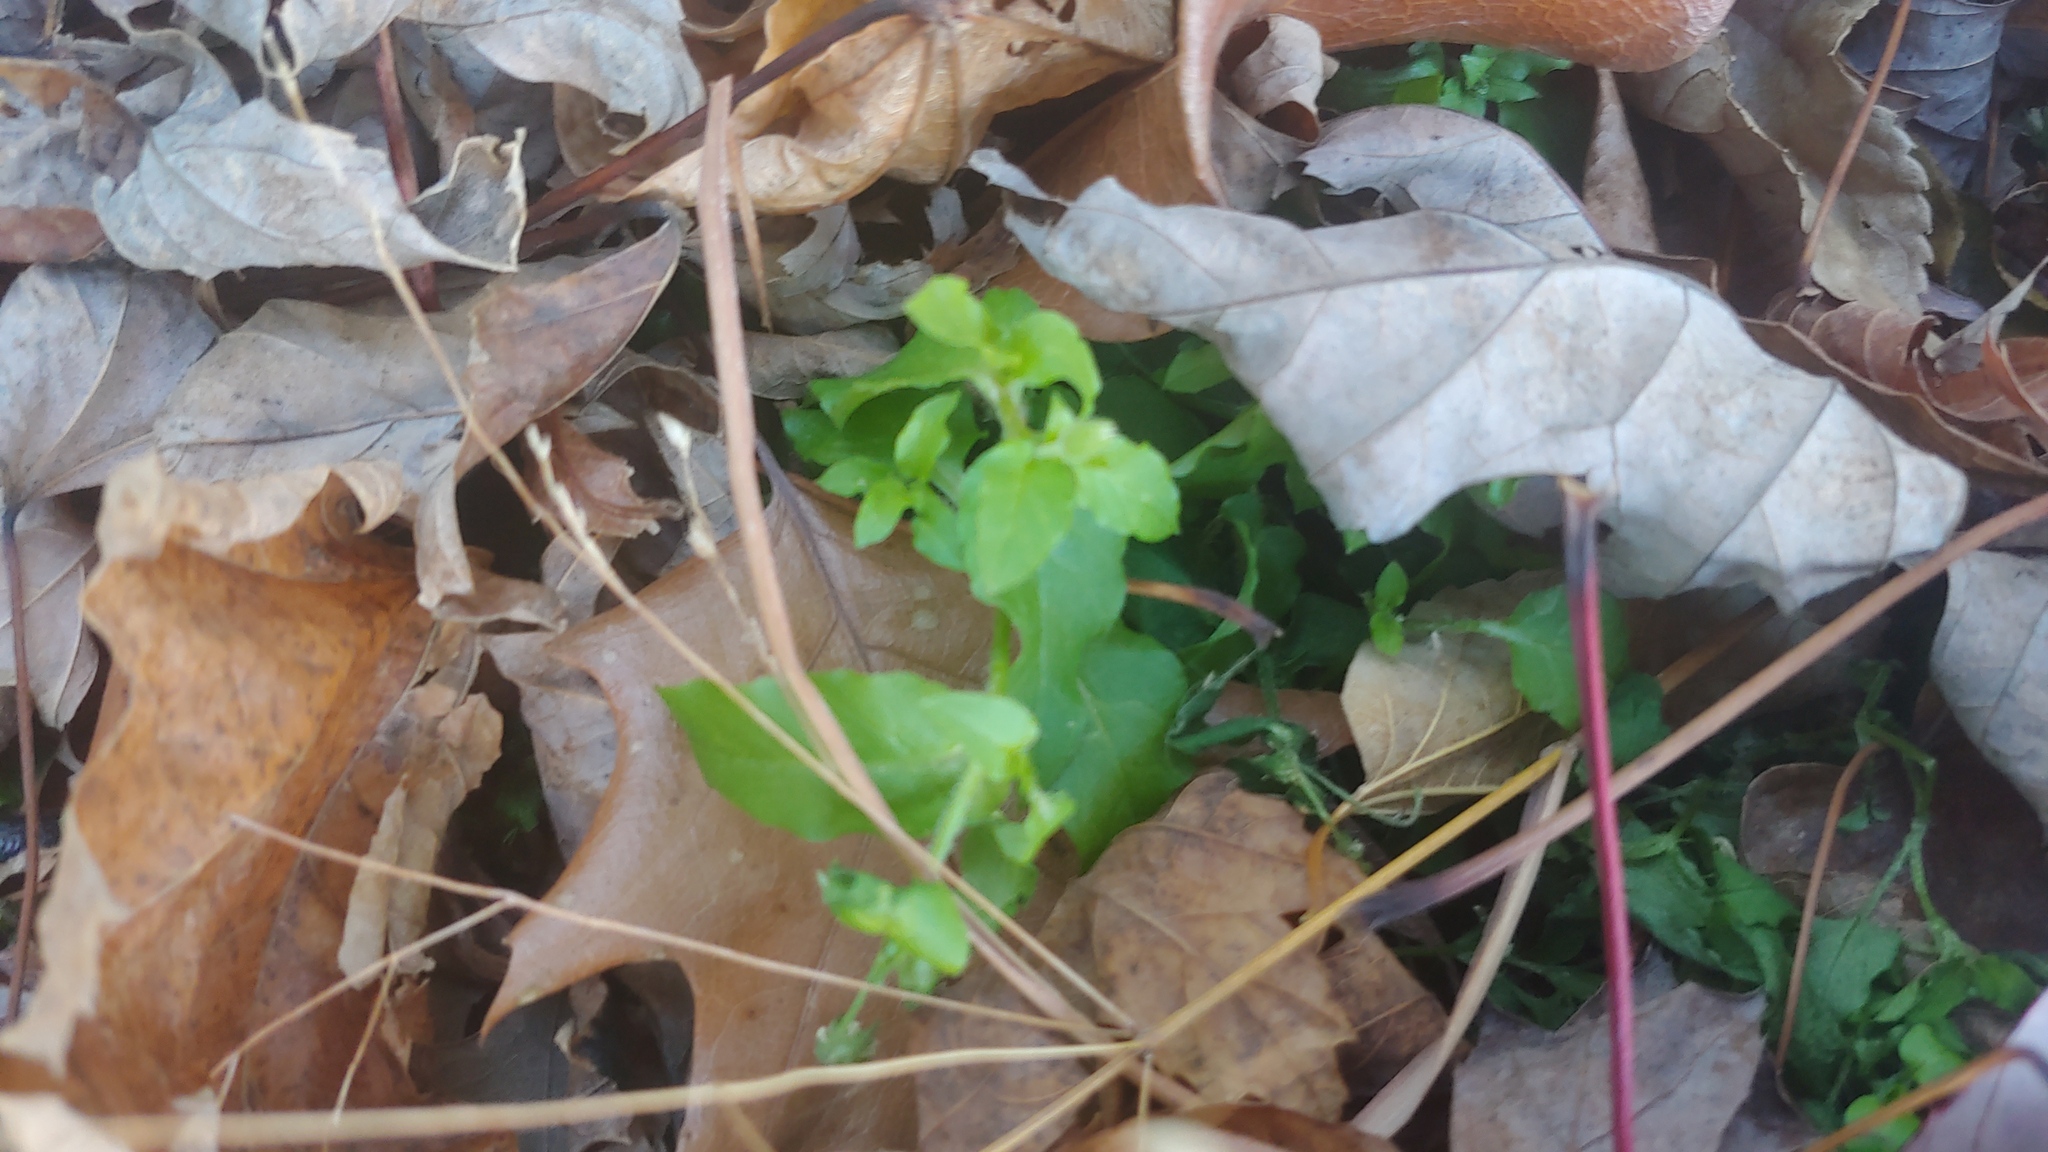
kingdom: Plantae
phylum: Tracheophyta
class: Magnoliopsida
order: Caryophyllales
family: Caryophyllaceae
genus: Stellaria
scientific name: Stellaria aquatica
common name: Water chickweed
